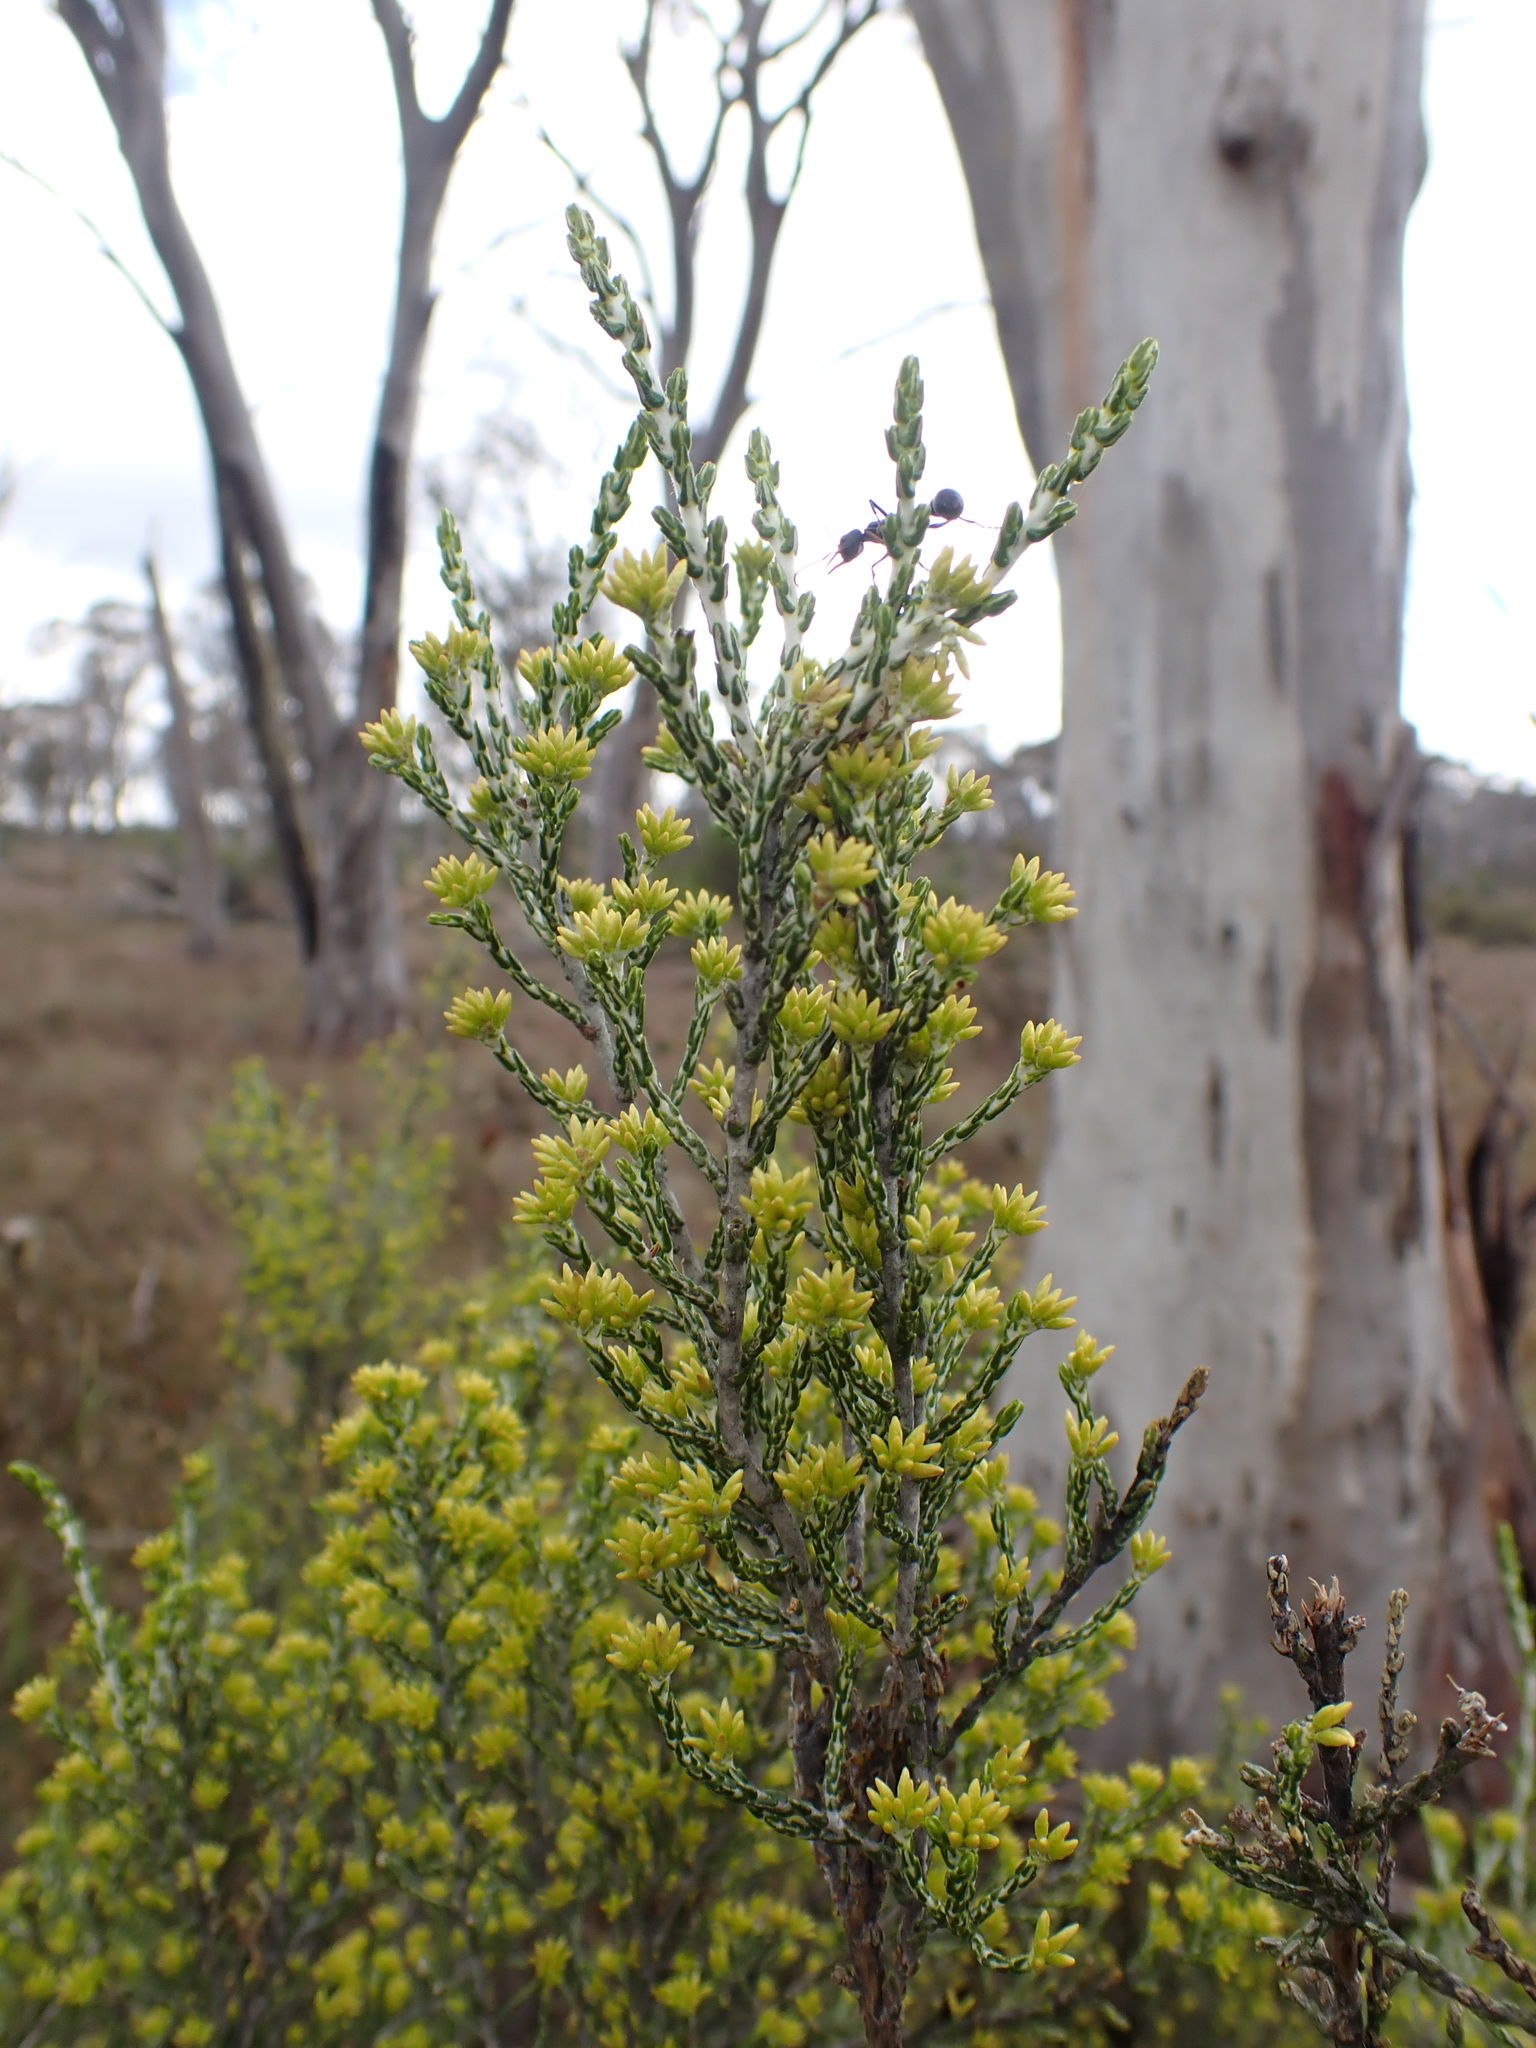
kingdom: Plantae
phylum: Tracheophyta
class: Magnoliopsida
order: Asterales
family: Asteraceae
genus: Ozothamnus
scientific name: Ozothamnus cupressoides
